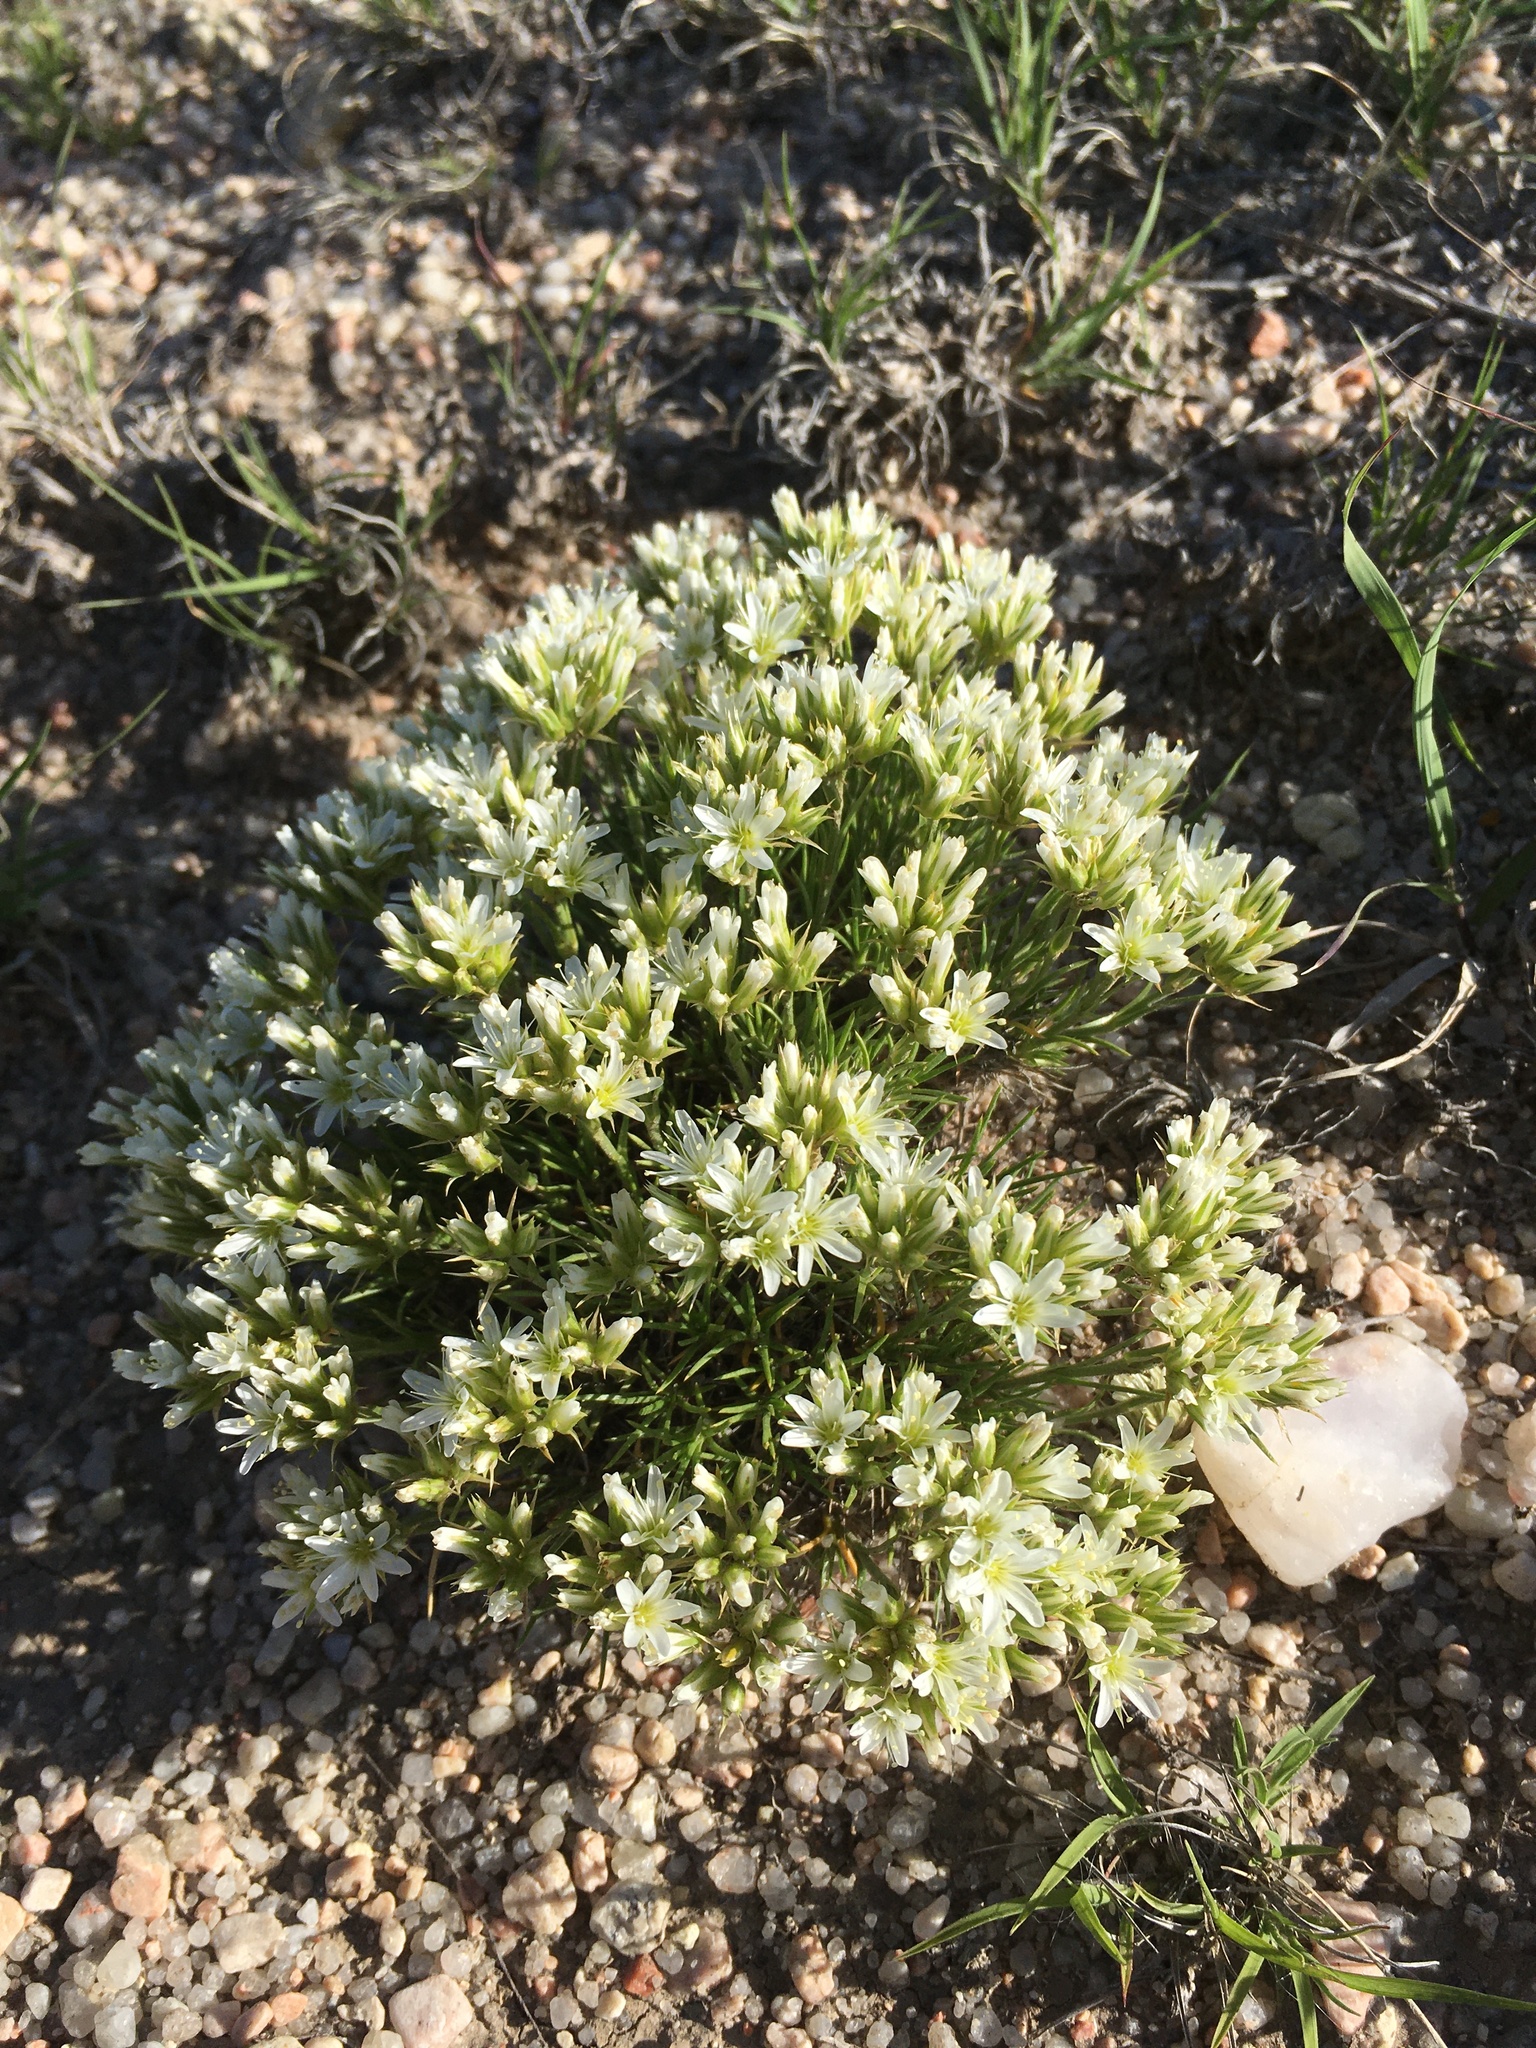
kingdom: Plantae
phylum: Tracheophyta
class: Magnoliopsida
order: Caryophyllales
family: Caryophyllaceae
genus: Eremogone
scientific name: Eremogone hookeri
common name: Hooker's sandwort
